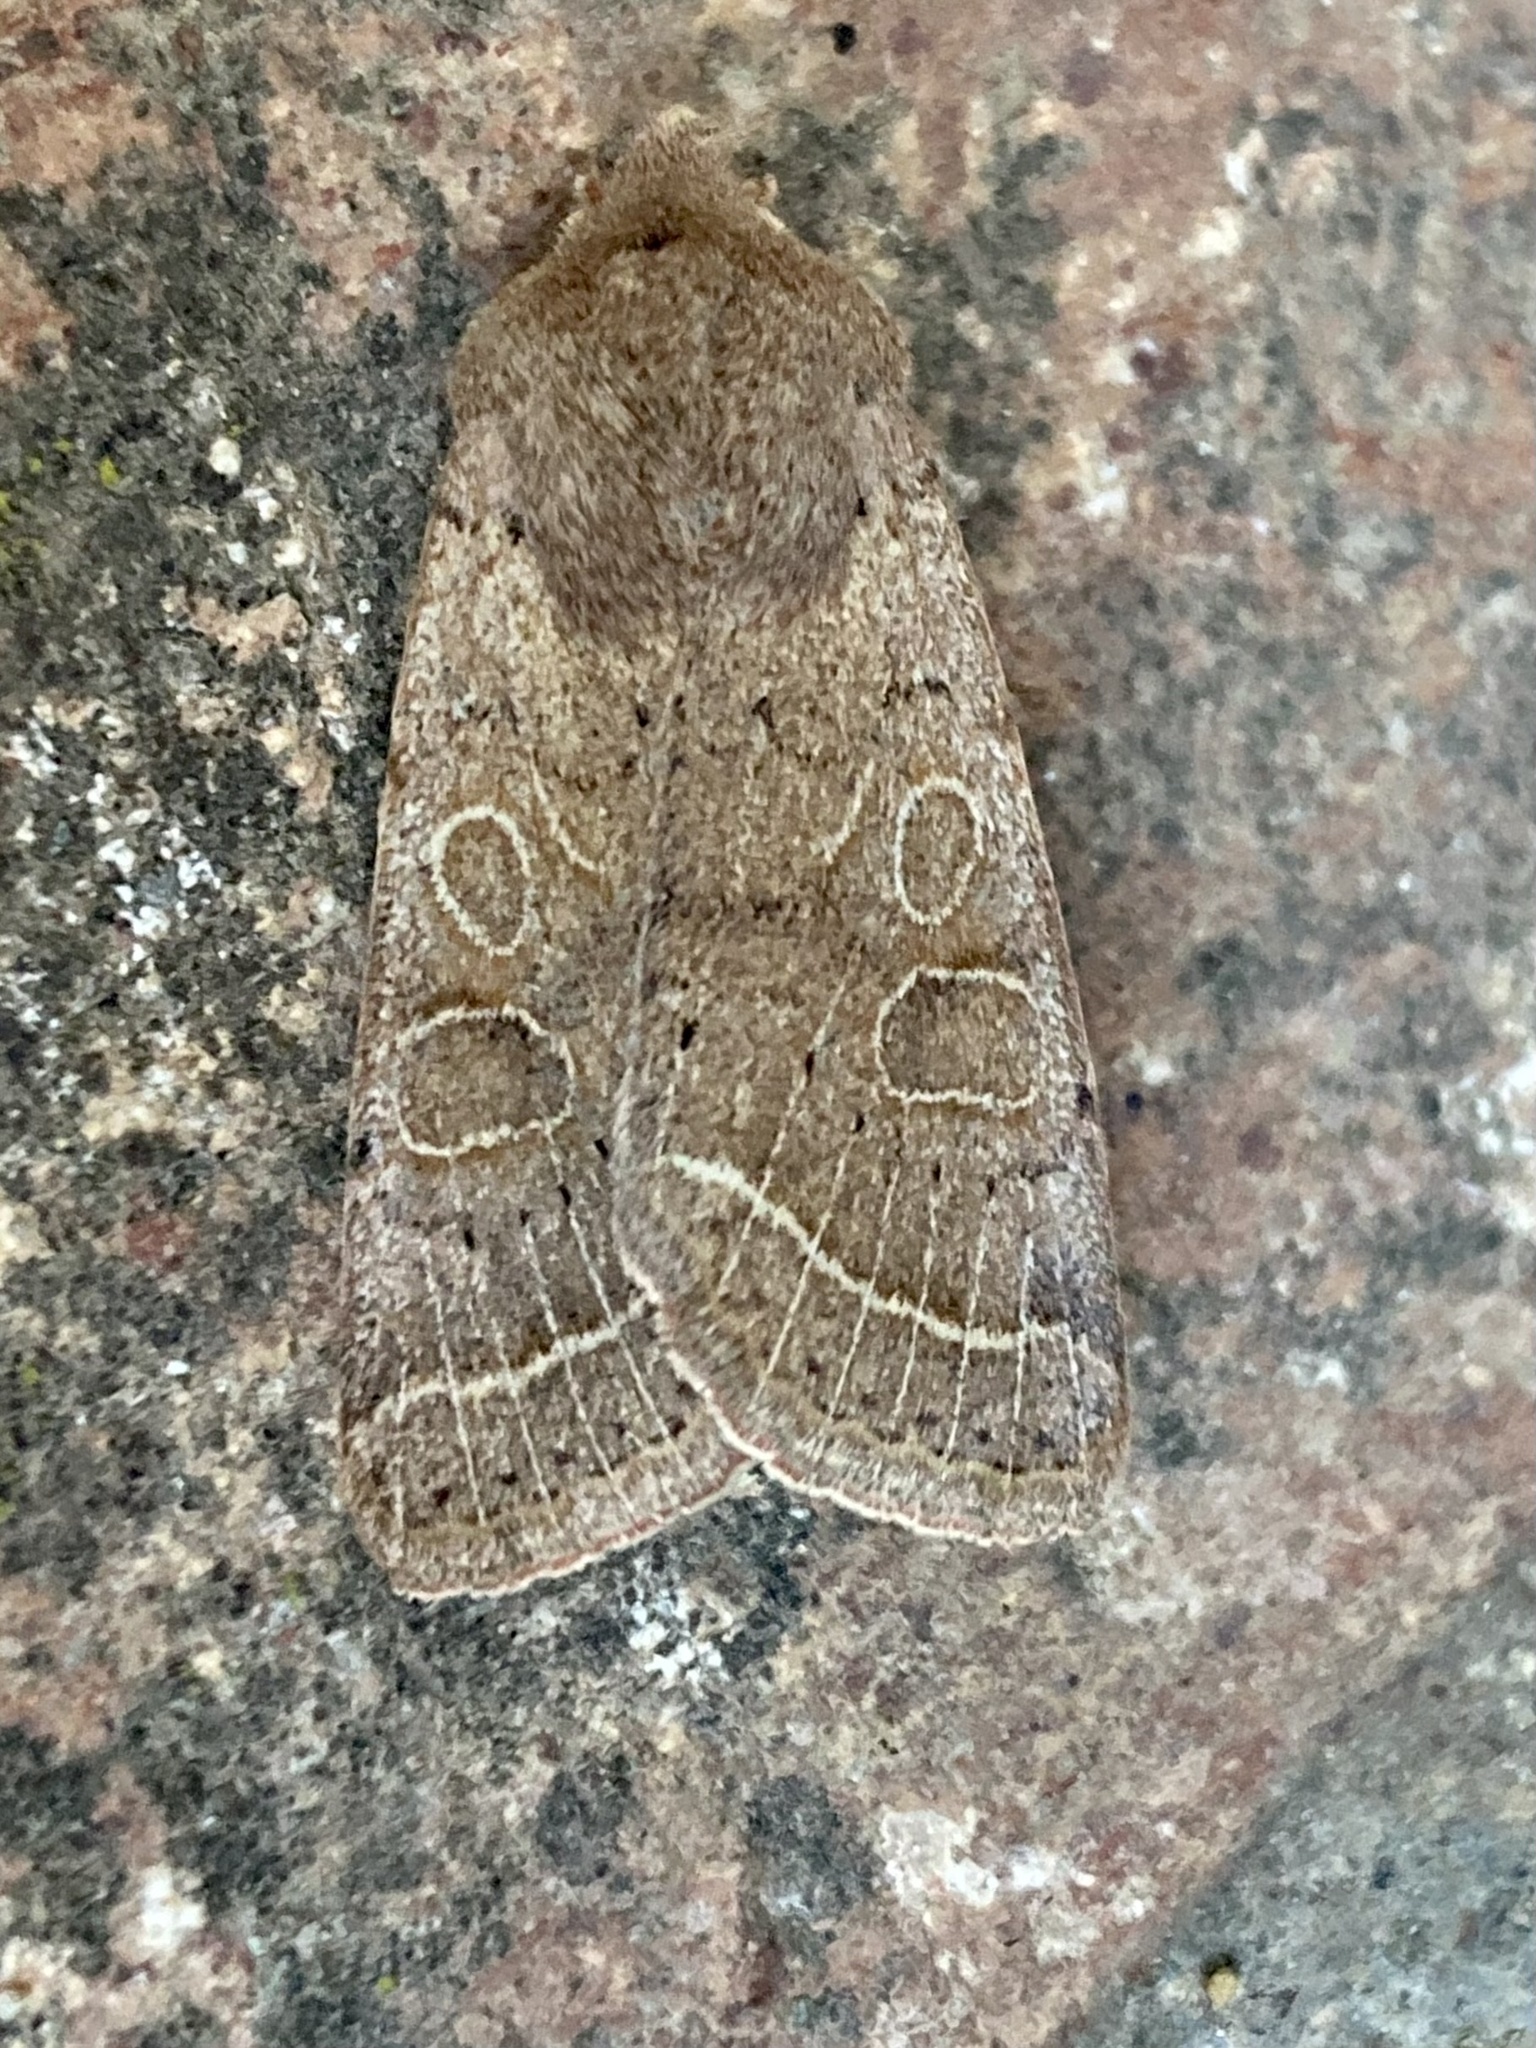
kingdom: Animalia
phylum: Arthropoda
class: Insecta
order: Lepidoptera
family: Noctuidae
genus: Orthosia
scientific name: Orthosia cerasi
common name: Common quaker
